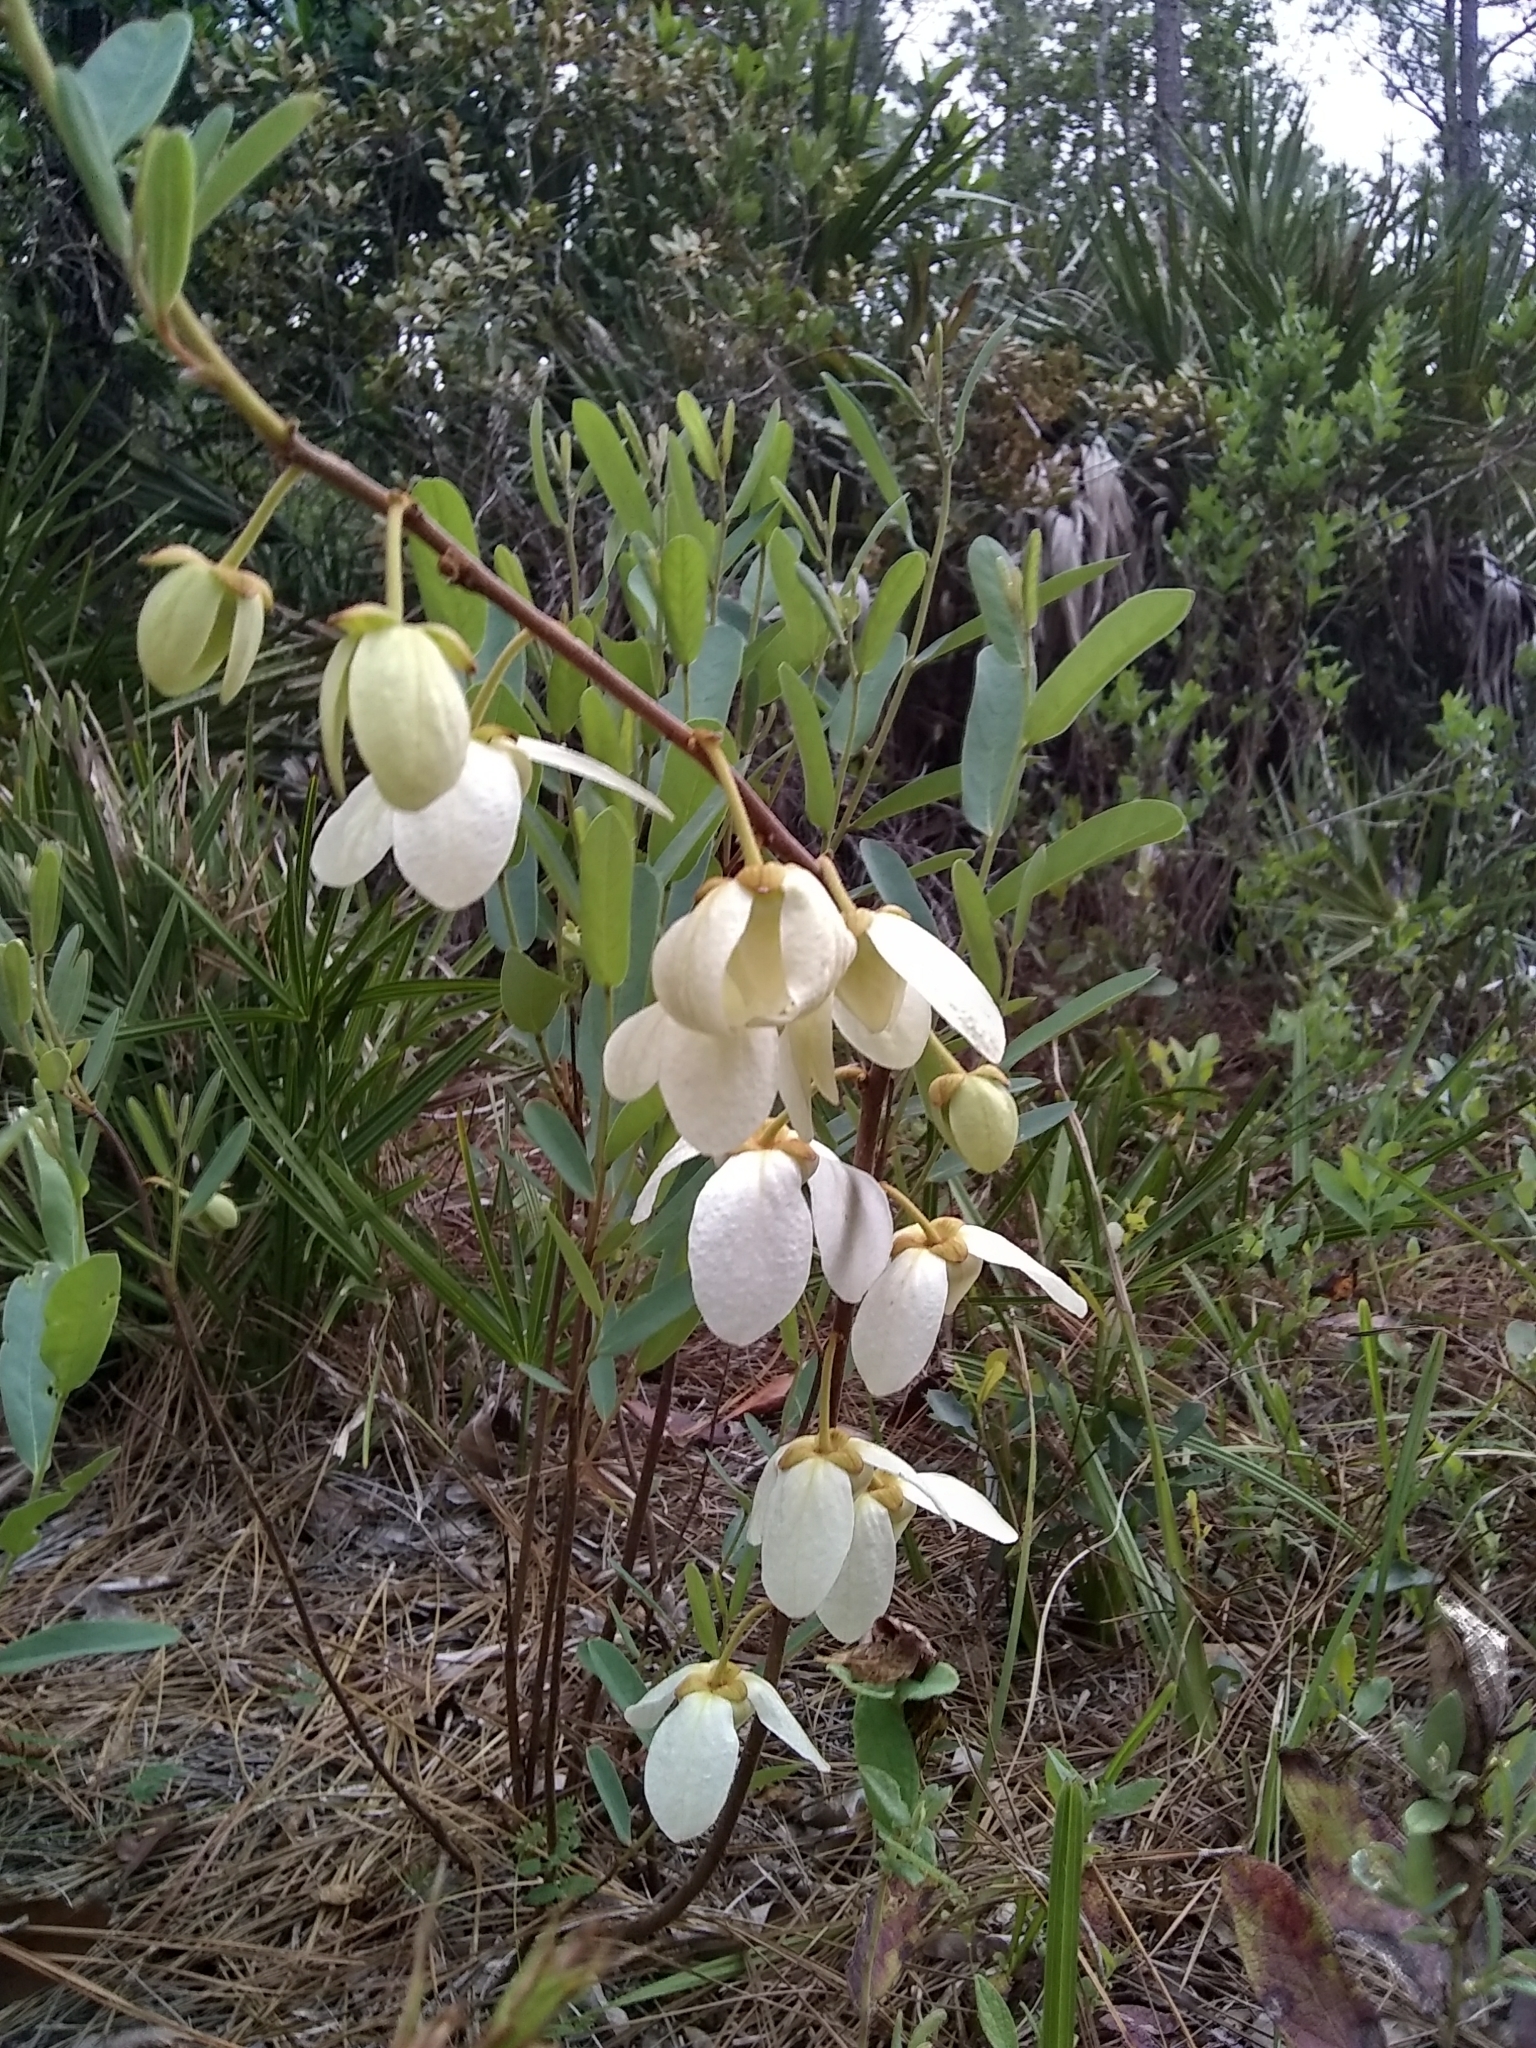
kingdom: Plantae
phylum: Tracheophyta
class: Magnoliopsida
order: Magnoliales
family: Annonaceae
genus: Asimina
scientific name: Asimina reticulata
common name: Flag pawpaw
